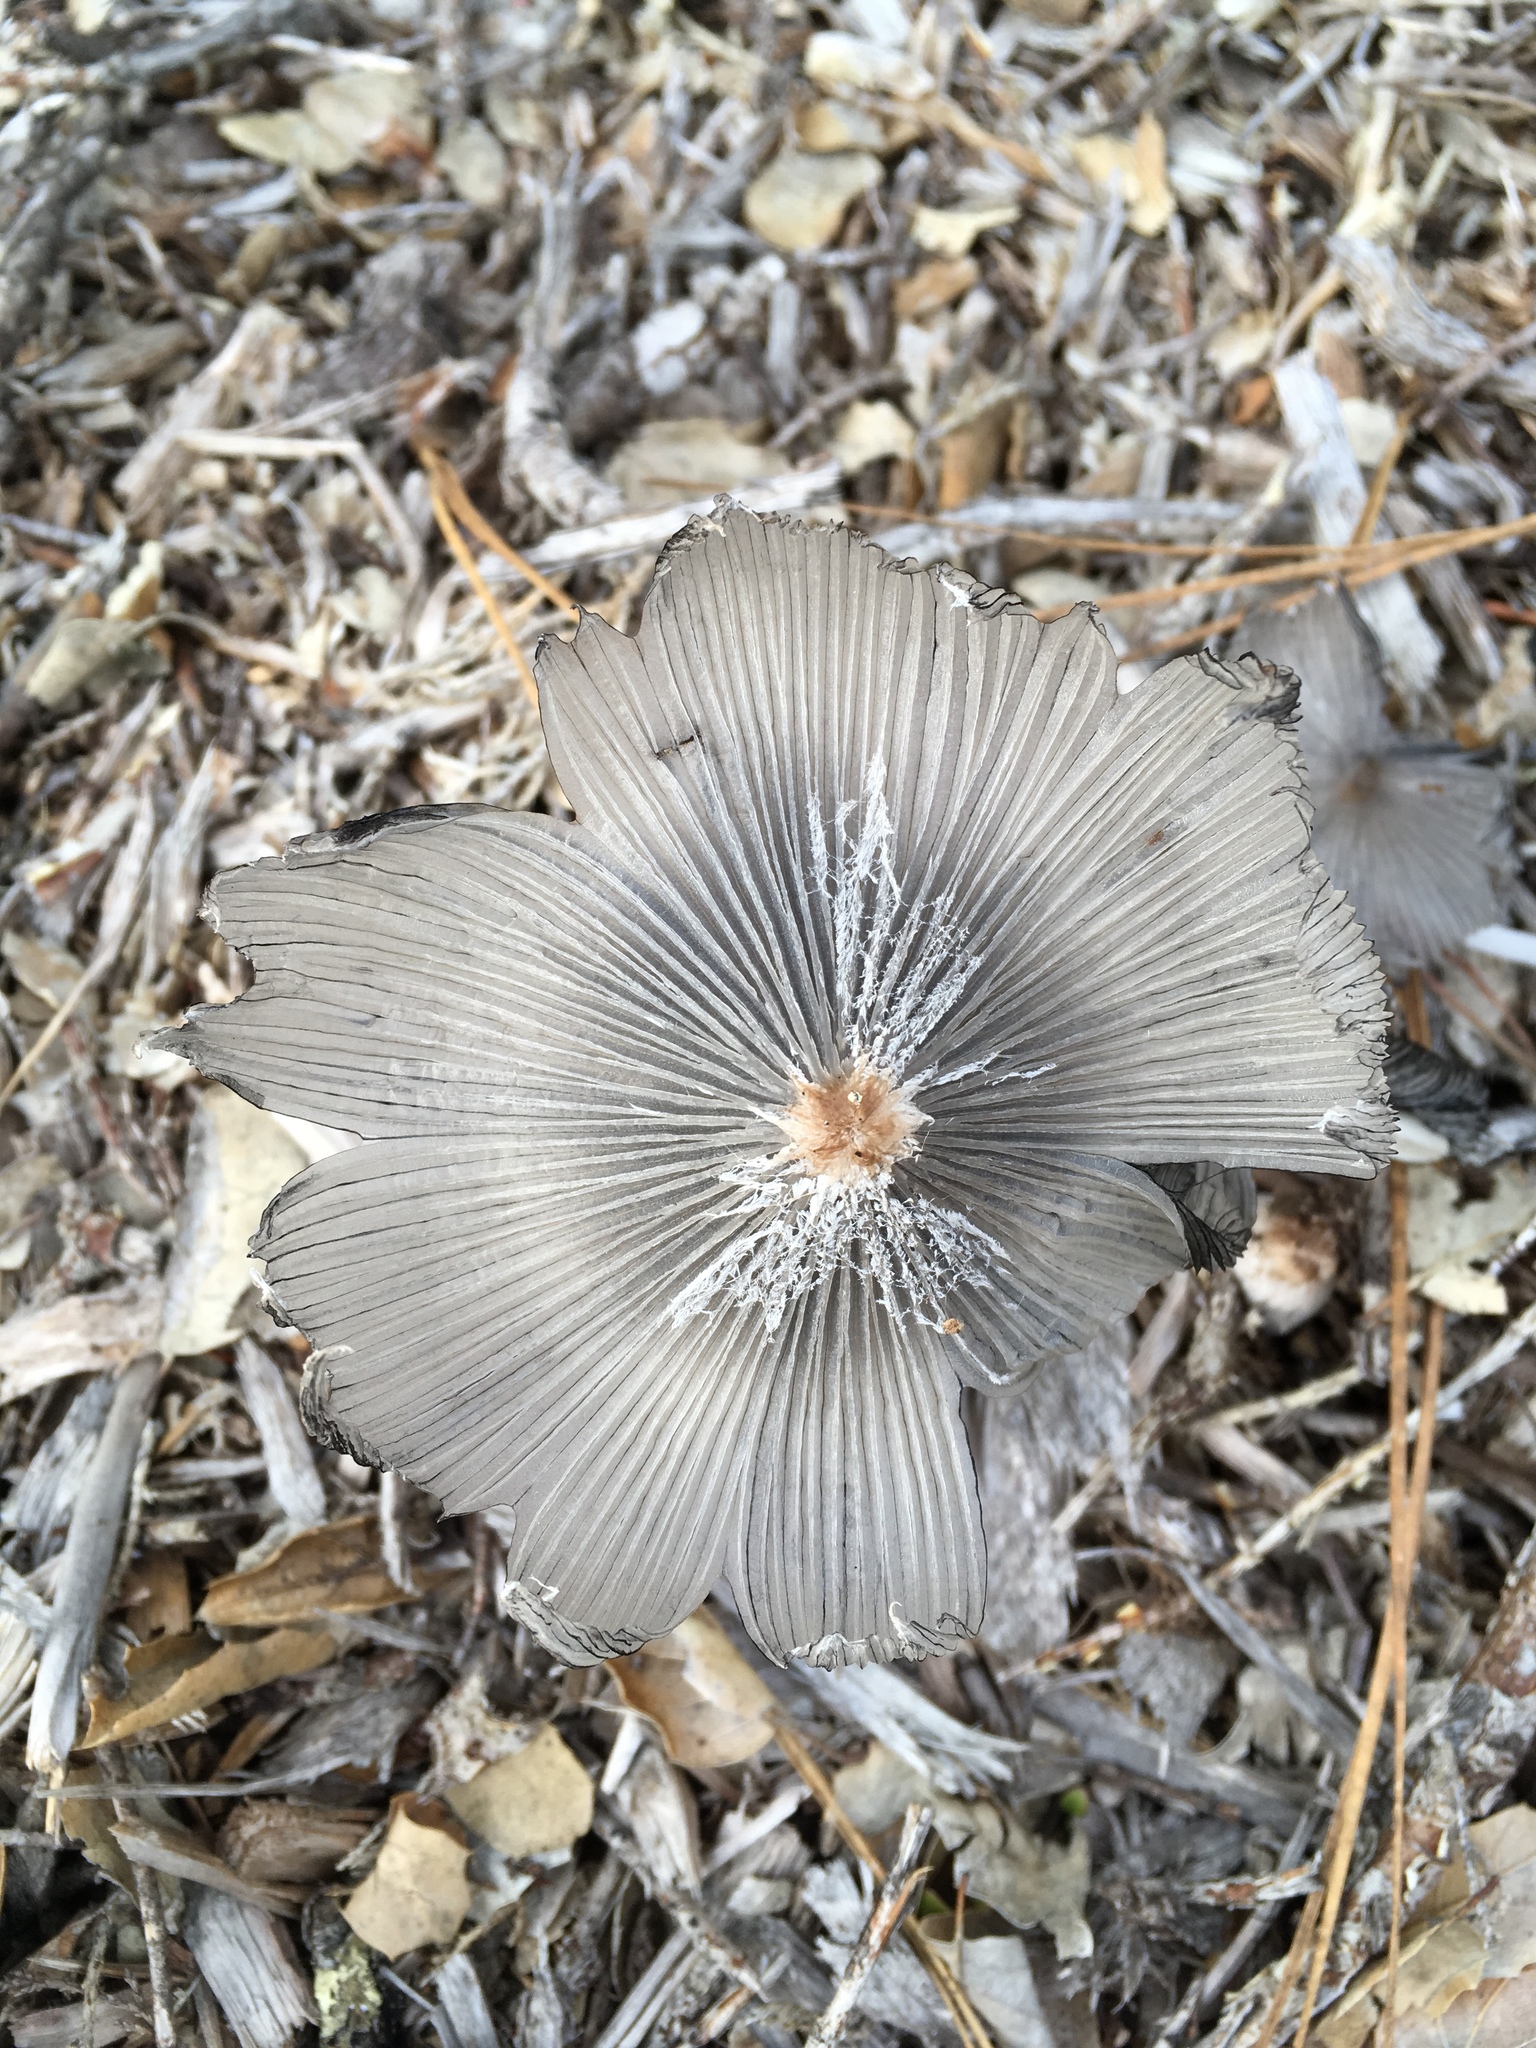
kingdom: Fungi
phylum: Basidiomycota
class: Agaricomycetes
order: Agaricales
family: Psathyrellaceae
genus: Coprinopsis
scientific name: Coprinopsis lagopus
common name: Hare'sfoot inkcap
